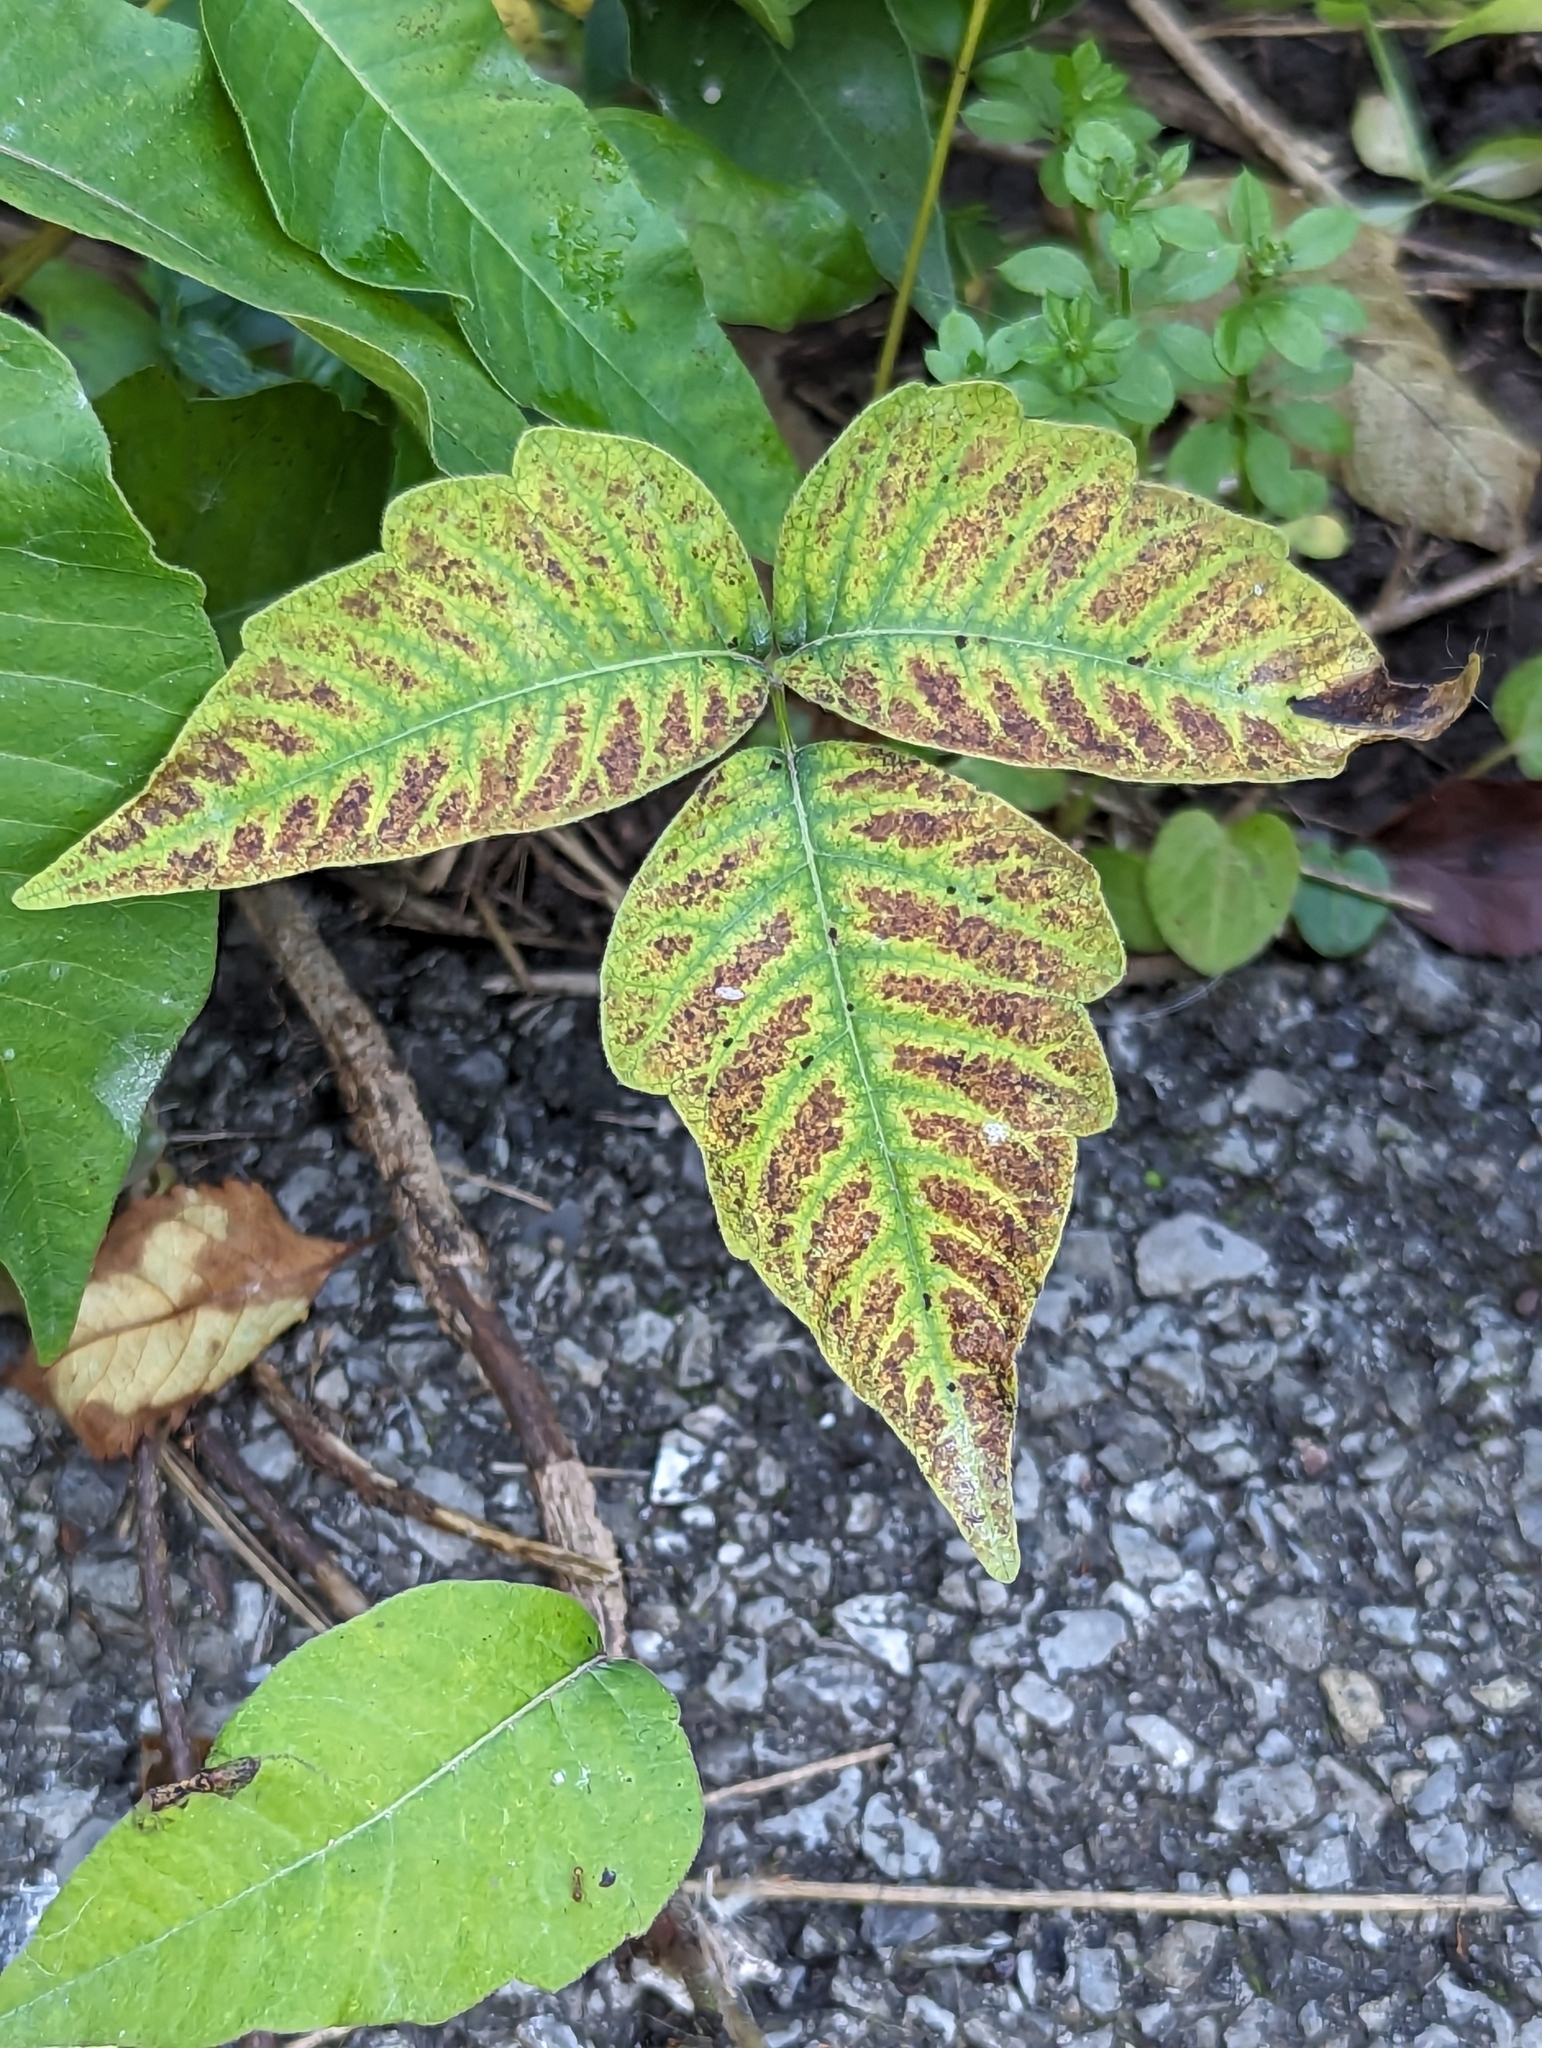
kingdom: Plantae
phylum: Tracheophyta
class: Magnoliopsida
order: Sapindales
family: Anacardiaceae
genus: Toxicodendron
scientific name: Toxicodendron radicans
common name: Poison ivy
